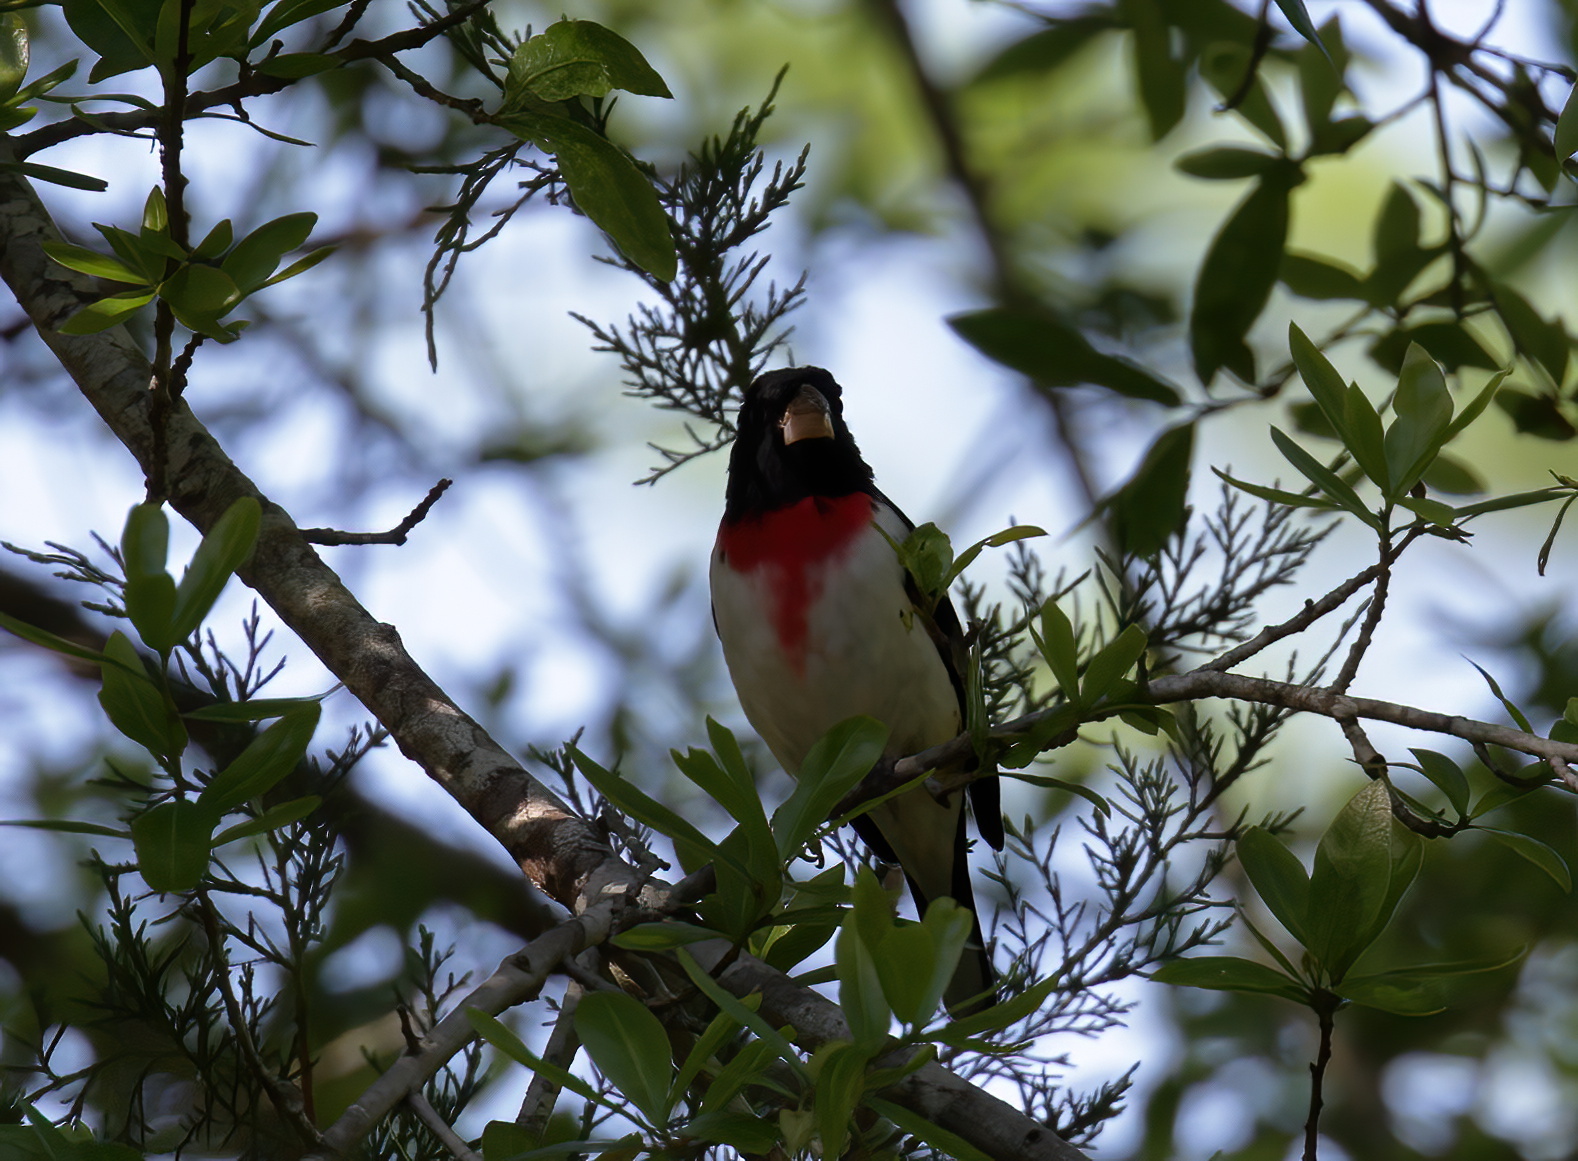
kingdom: Animalia
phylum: Chordata
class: Aves
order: Passeriformes
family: Cardinalidae
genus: Pheucticus
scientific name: Pheucticus ludovicianus
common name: Rose-breasted grosbeak
